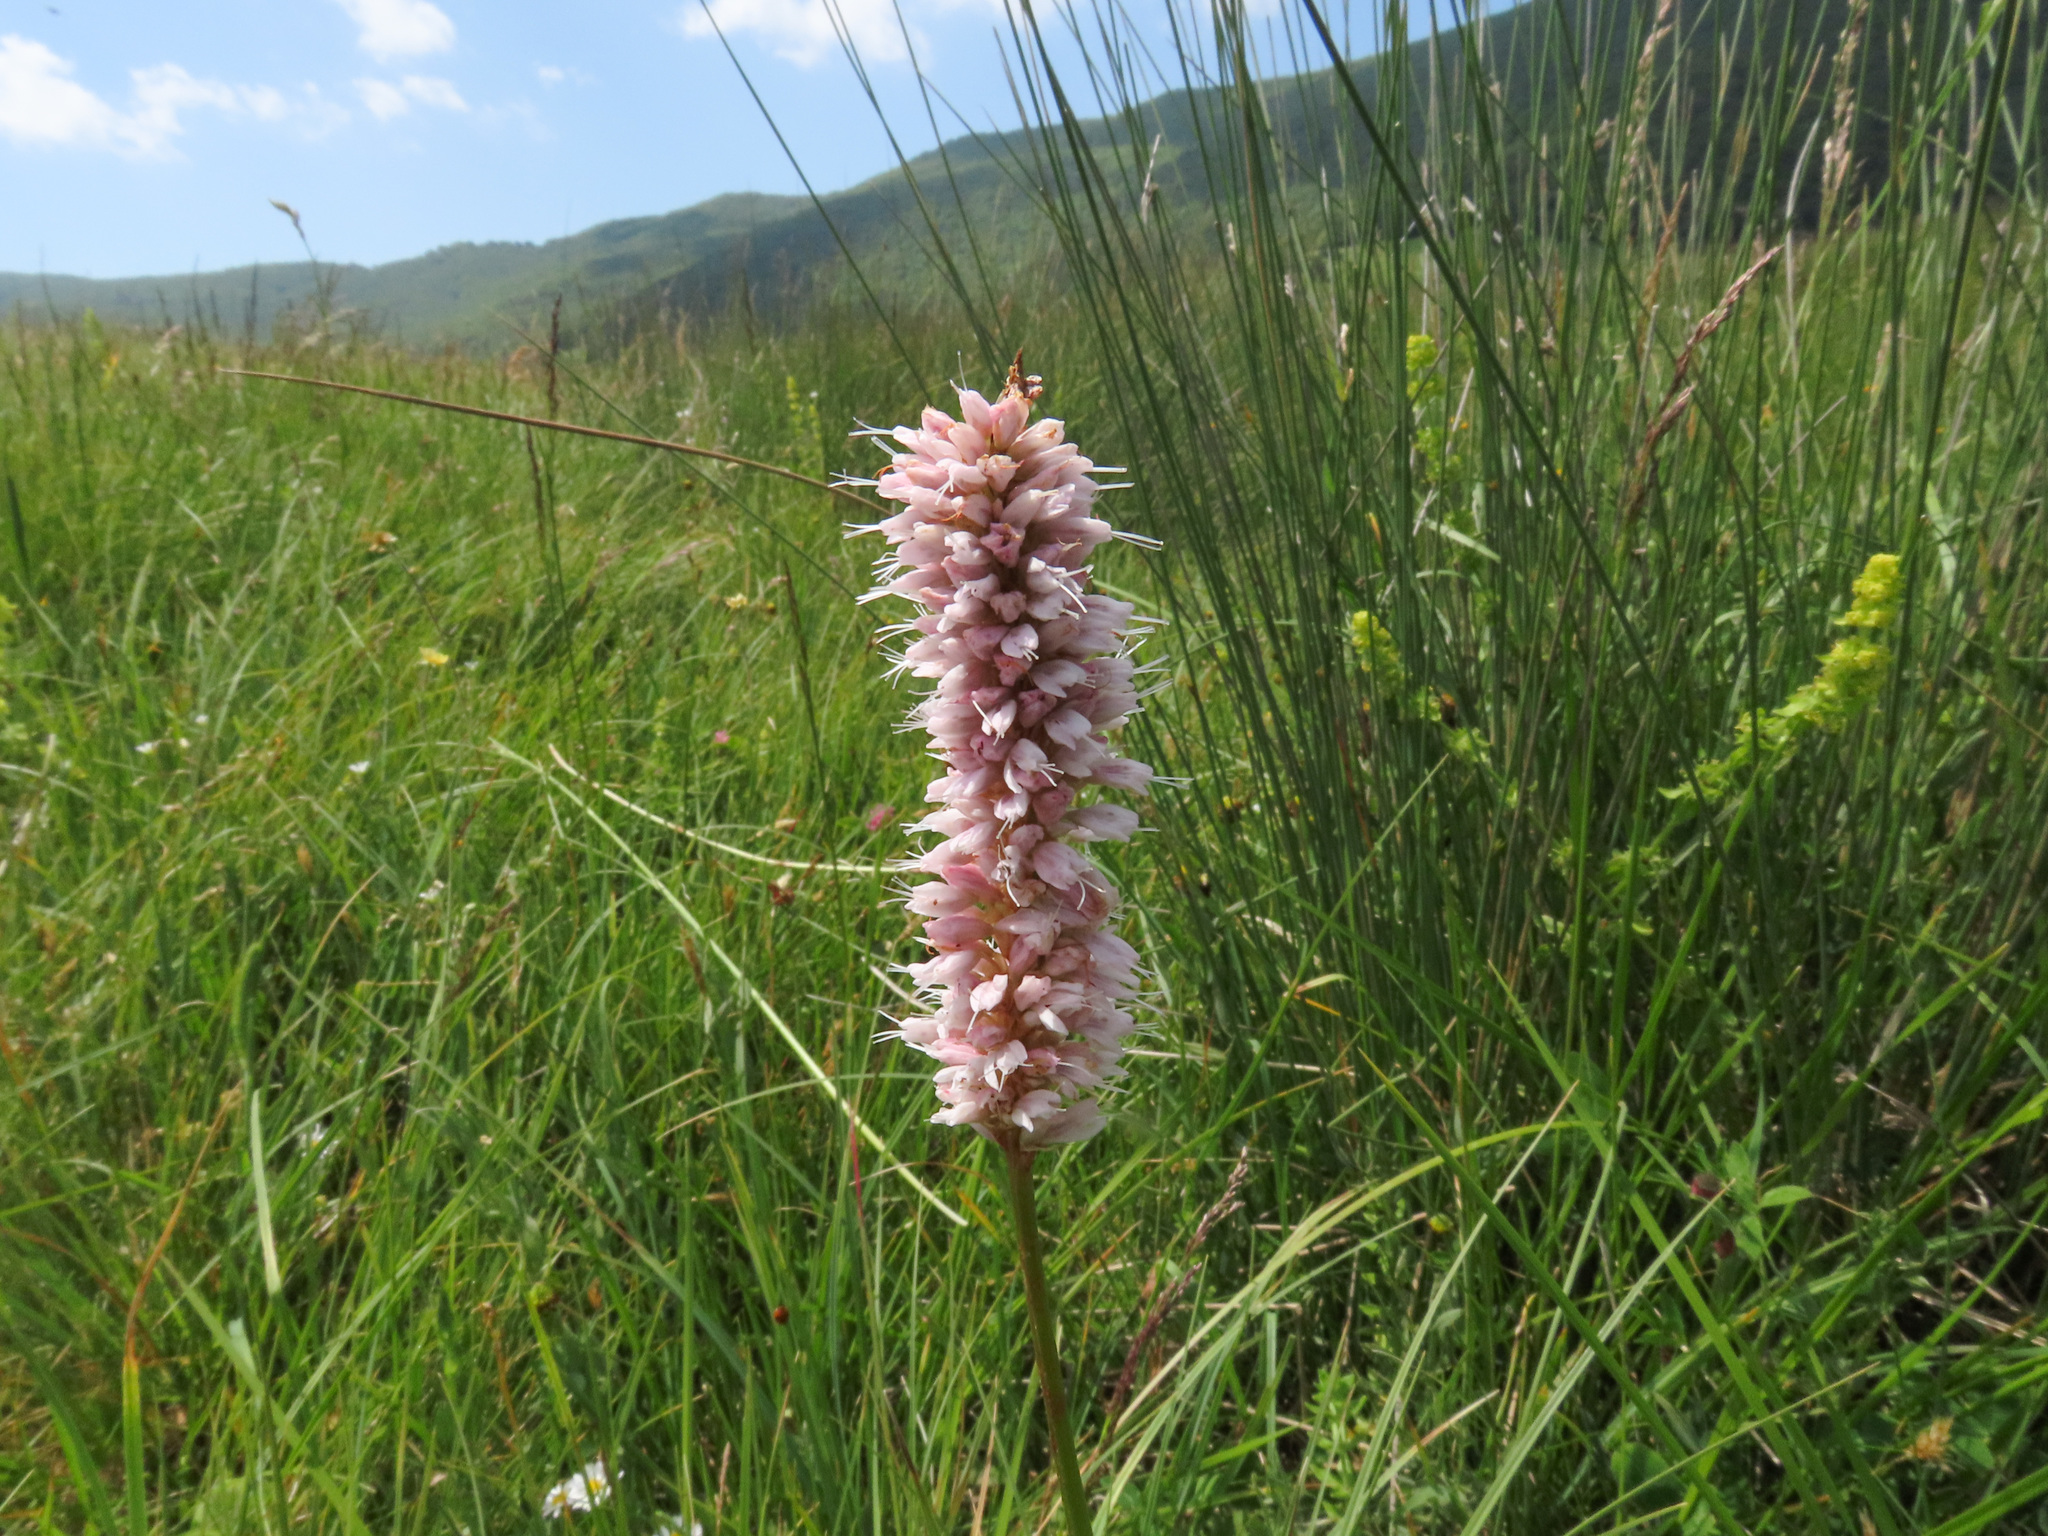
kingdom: Plantae
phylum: Tracheophyta
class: Magnoliopsida
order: Caryophyllales
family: Polygonaceae
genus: Bistorta
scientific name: Bistorta officinalis
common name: Common bistort
